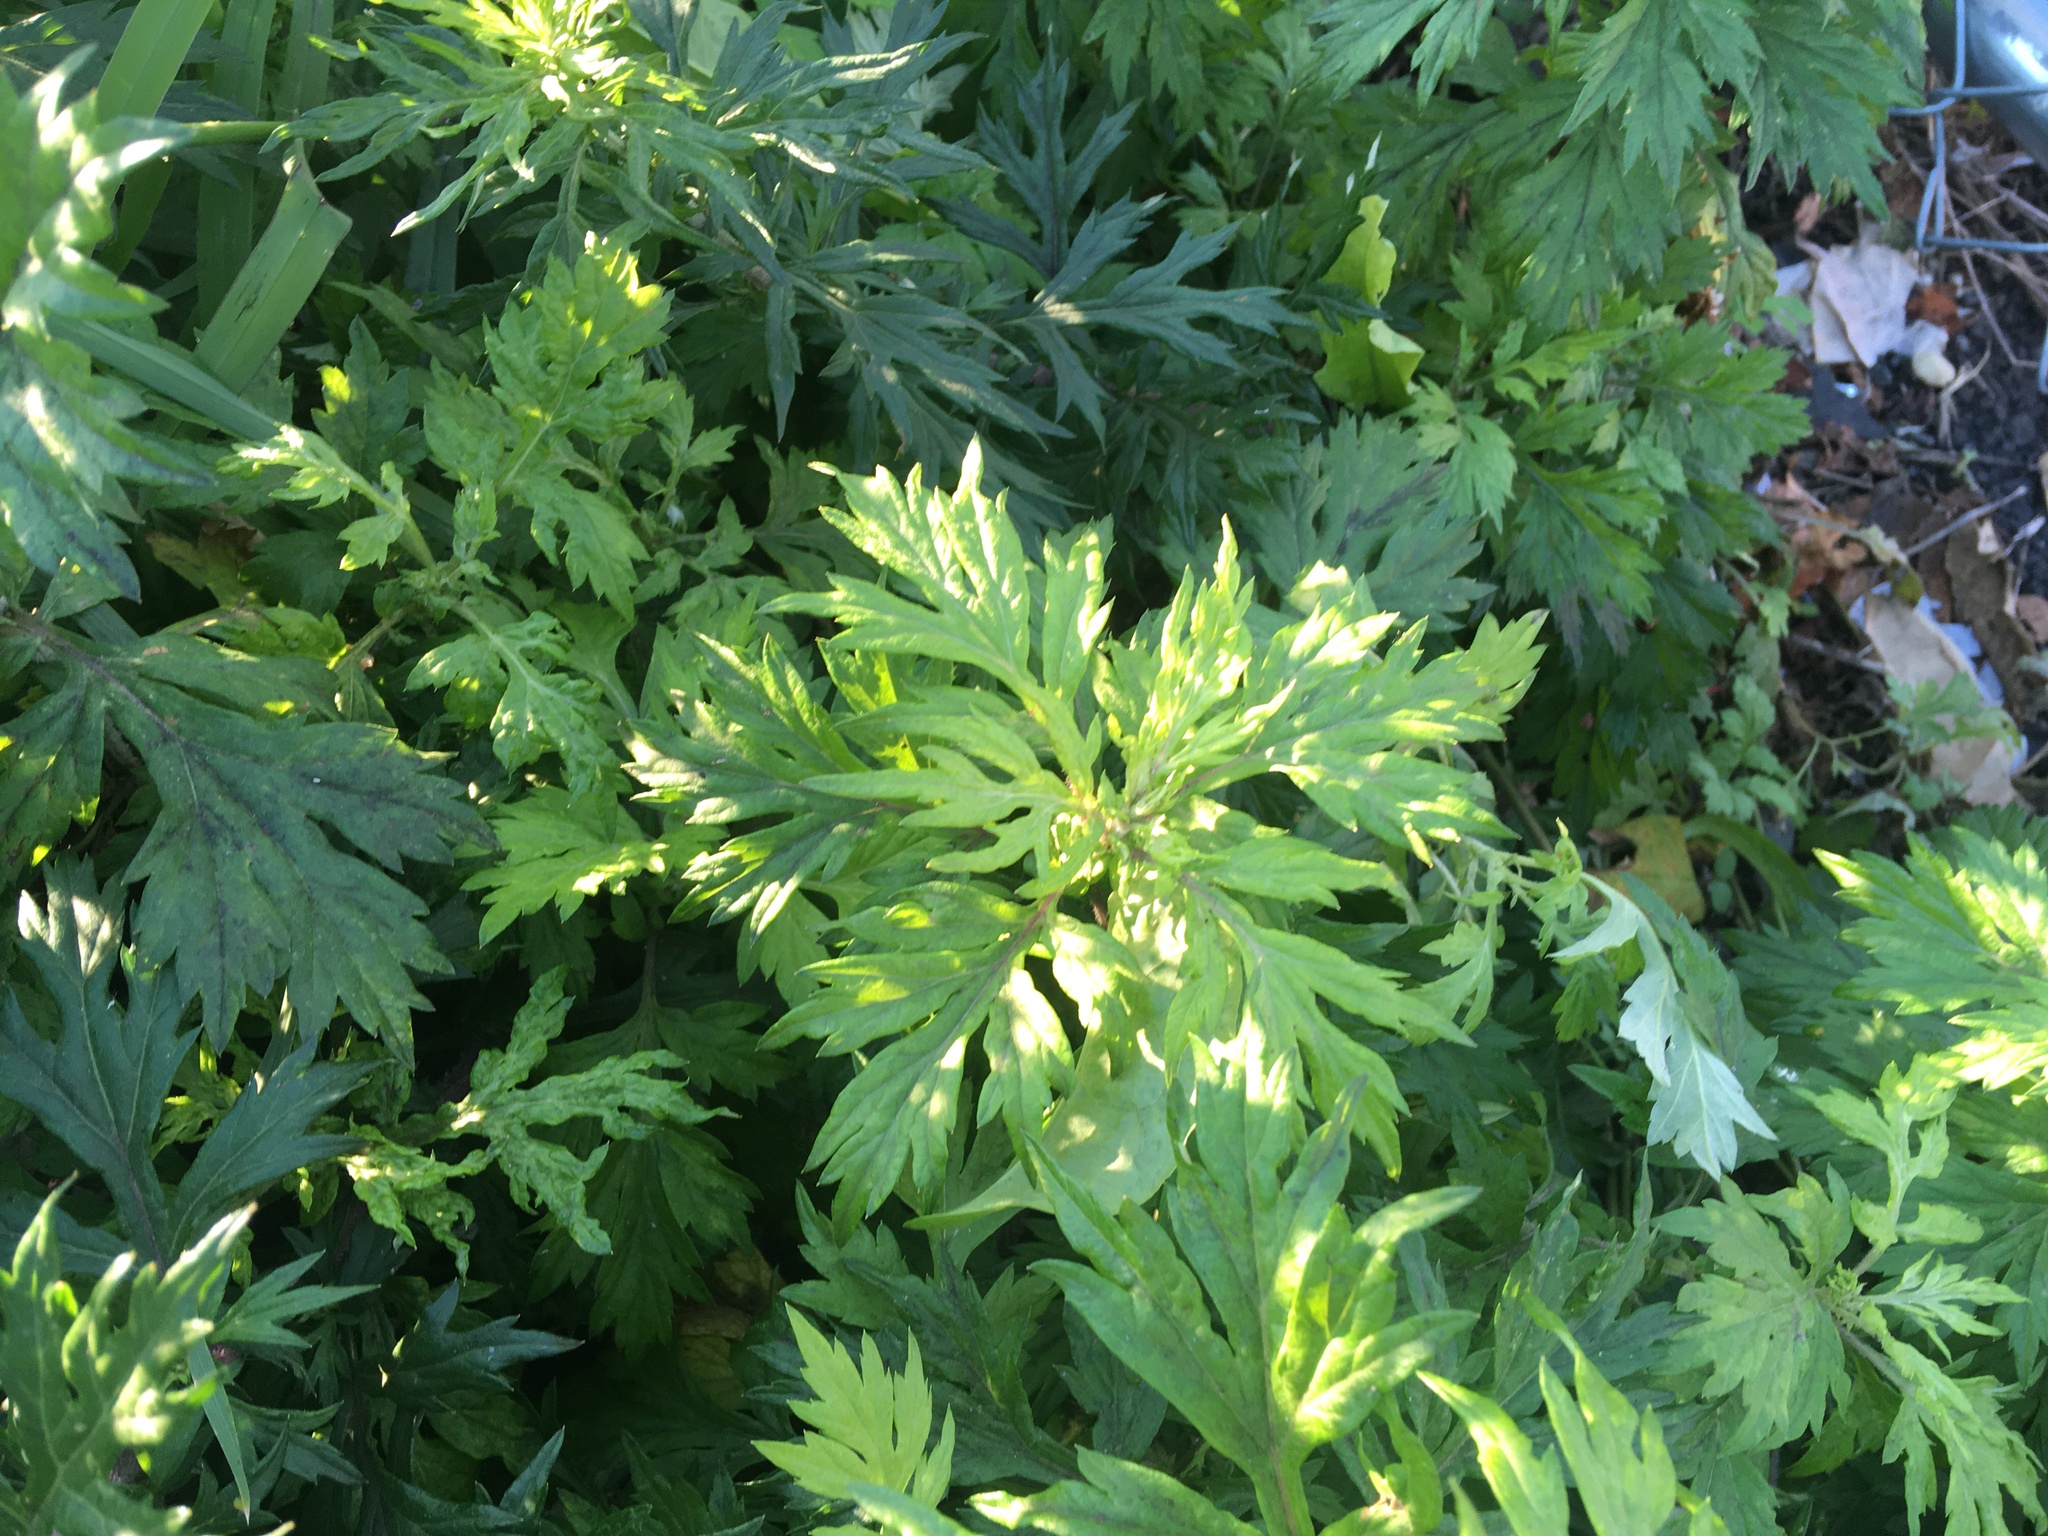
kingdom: Plantae
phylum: Tracheophyta
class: Magnoliopsida
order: Asterales
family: Asteraceae
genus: Artemisia
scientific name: Artemisia vulgaris
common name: Mugwort
